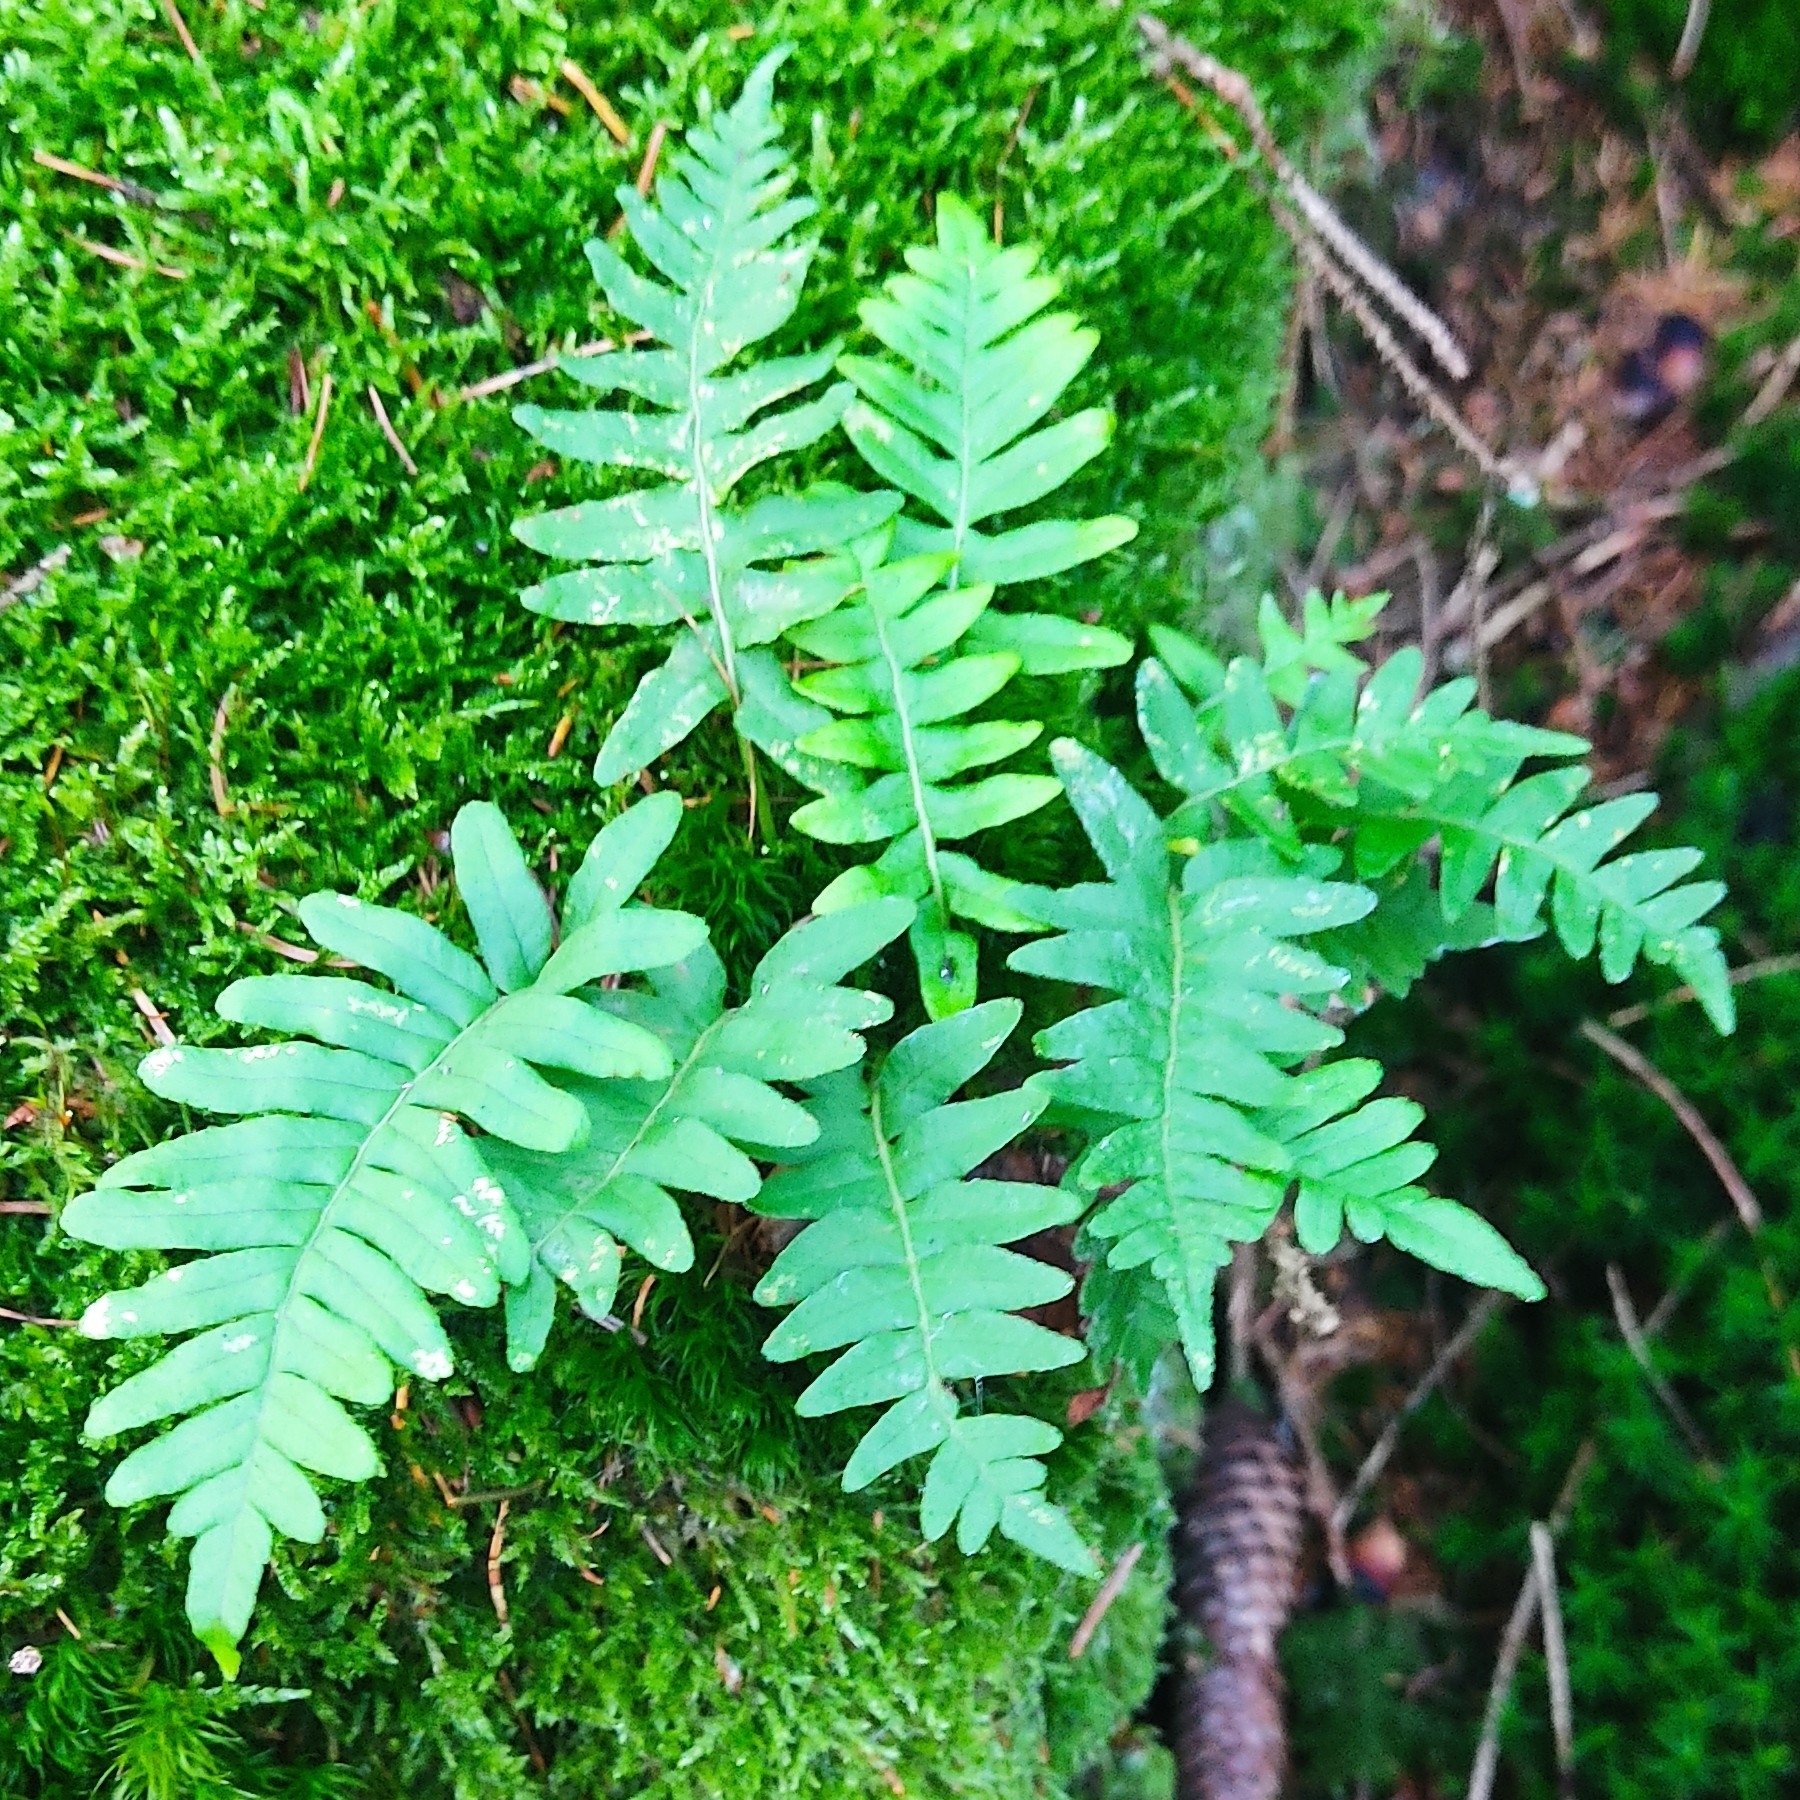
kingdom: Plantae
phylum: Tracheophyta
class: Polypodiopsida
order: Polypodiales
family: Polypodiaceae
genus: Polypodium
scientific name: Polypodium vulgare
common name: Common polypody
